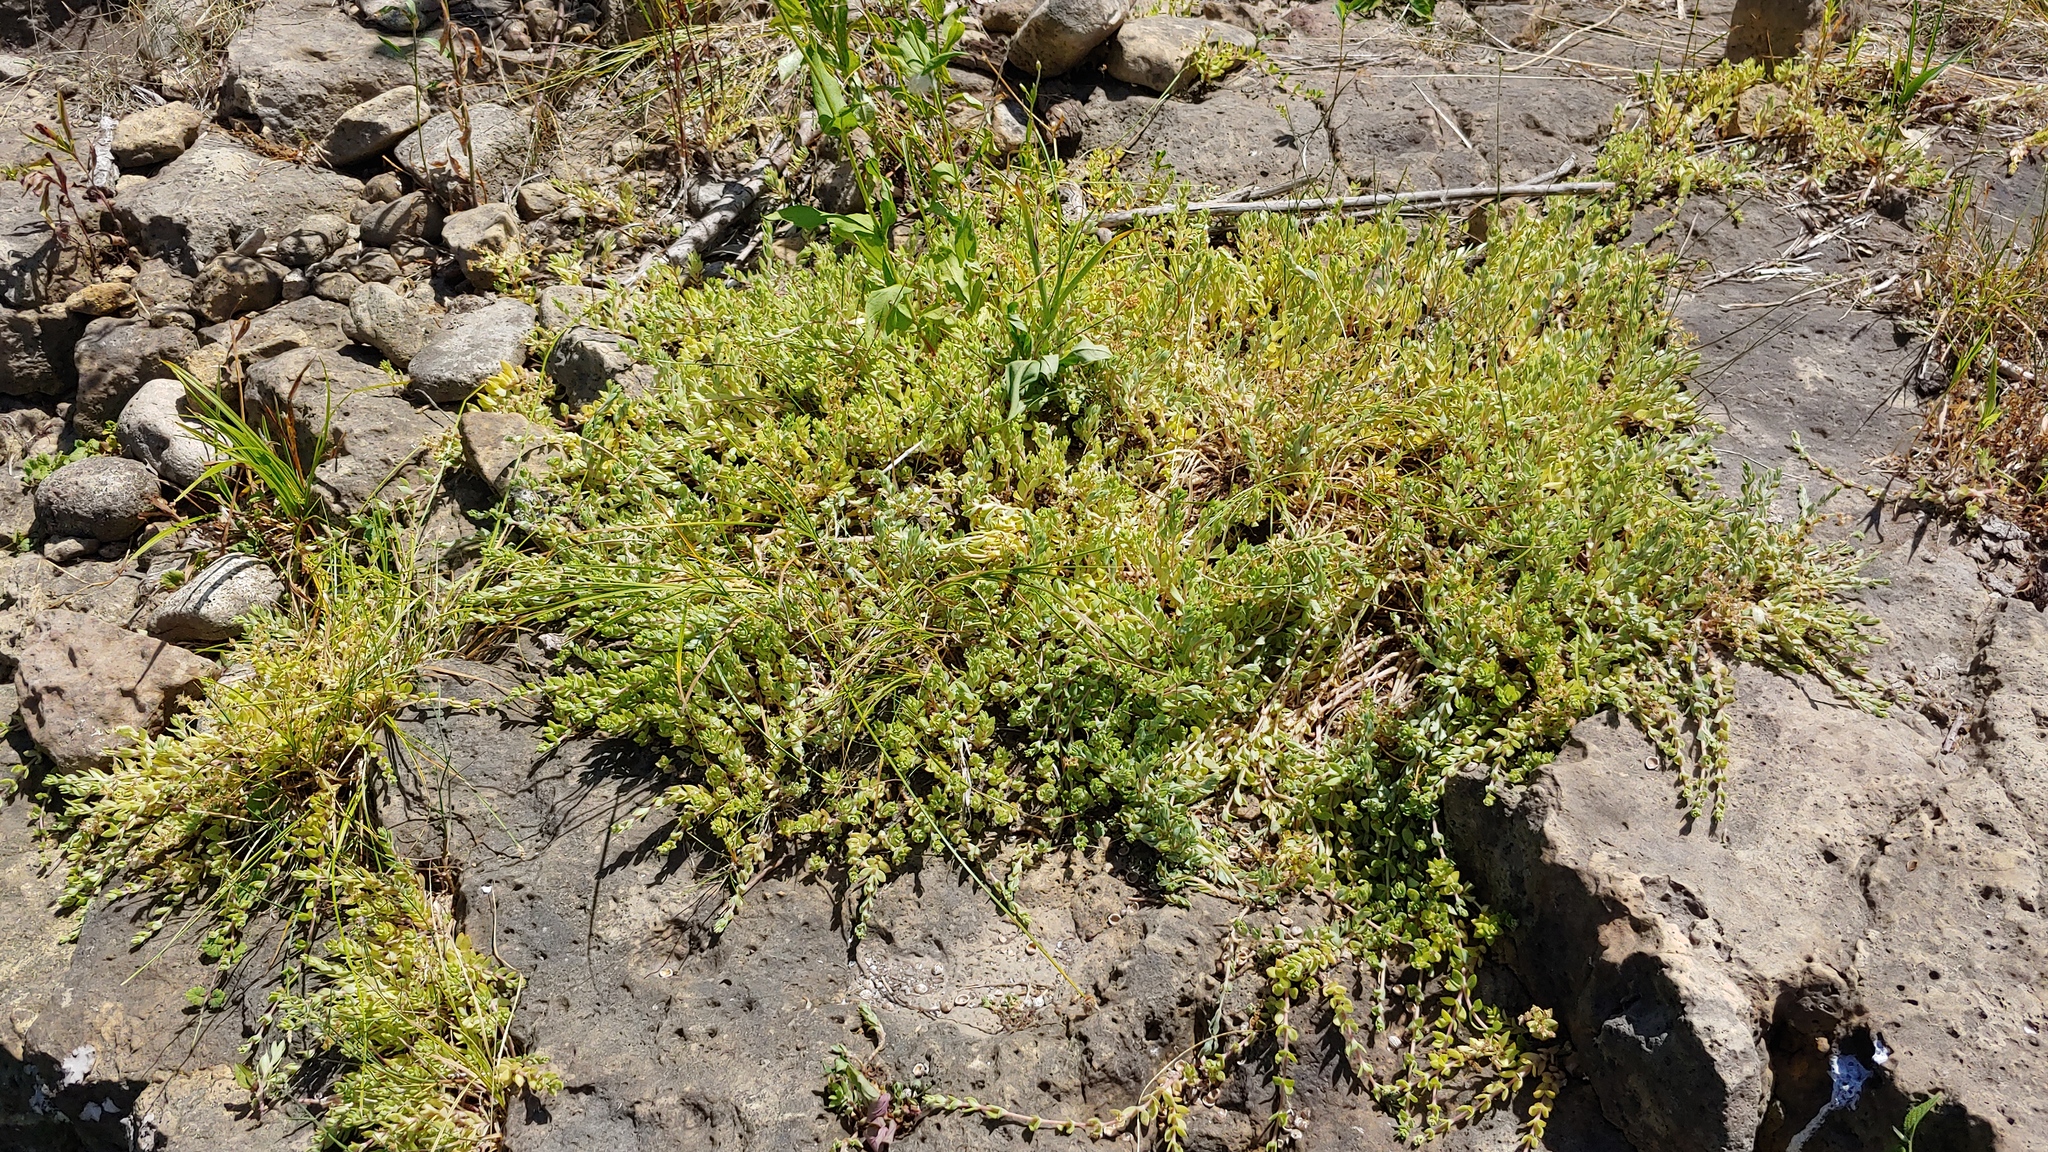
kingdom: Plantae
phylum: Tracheophyta
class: Magnoliopsida
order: Saxifragales
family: Crassulaceae
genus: Sedum
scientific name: Sedum sarmentosum
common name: Stringy stonecrop
